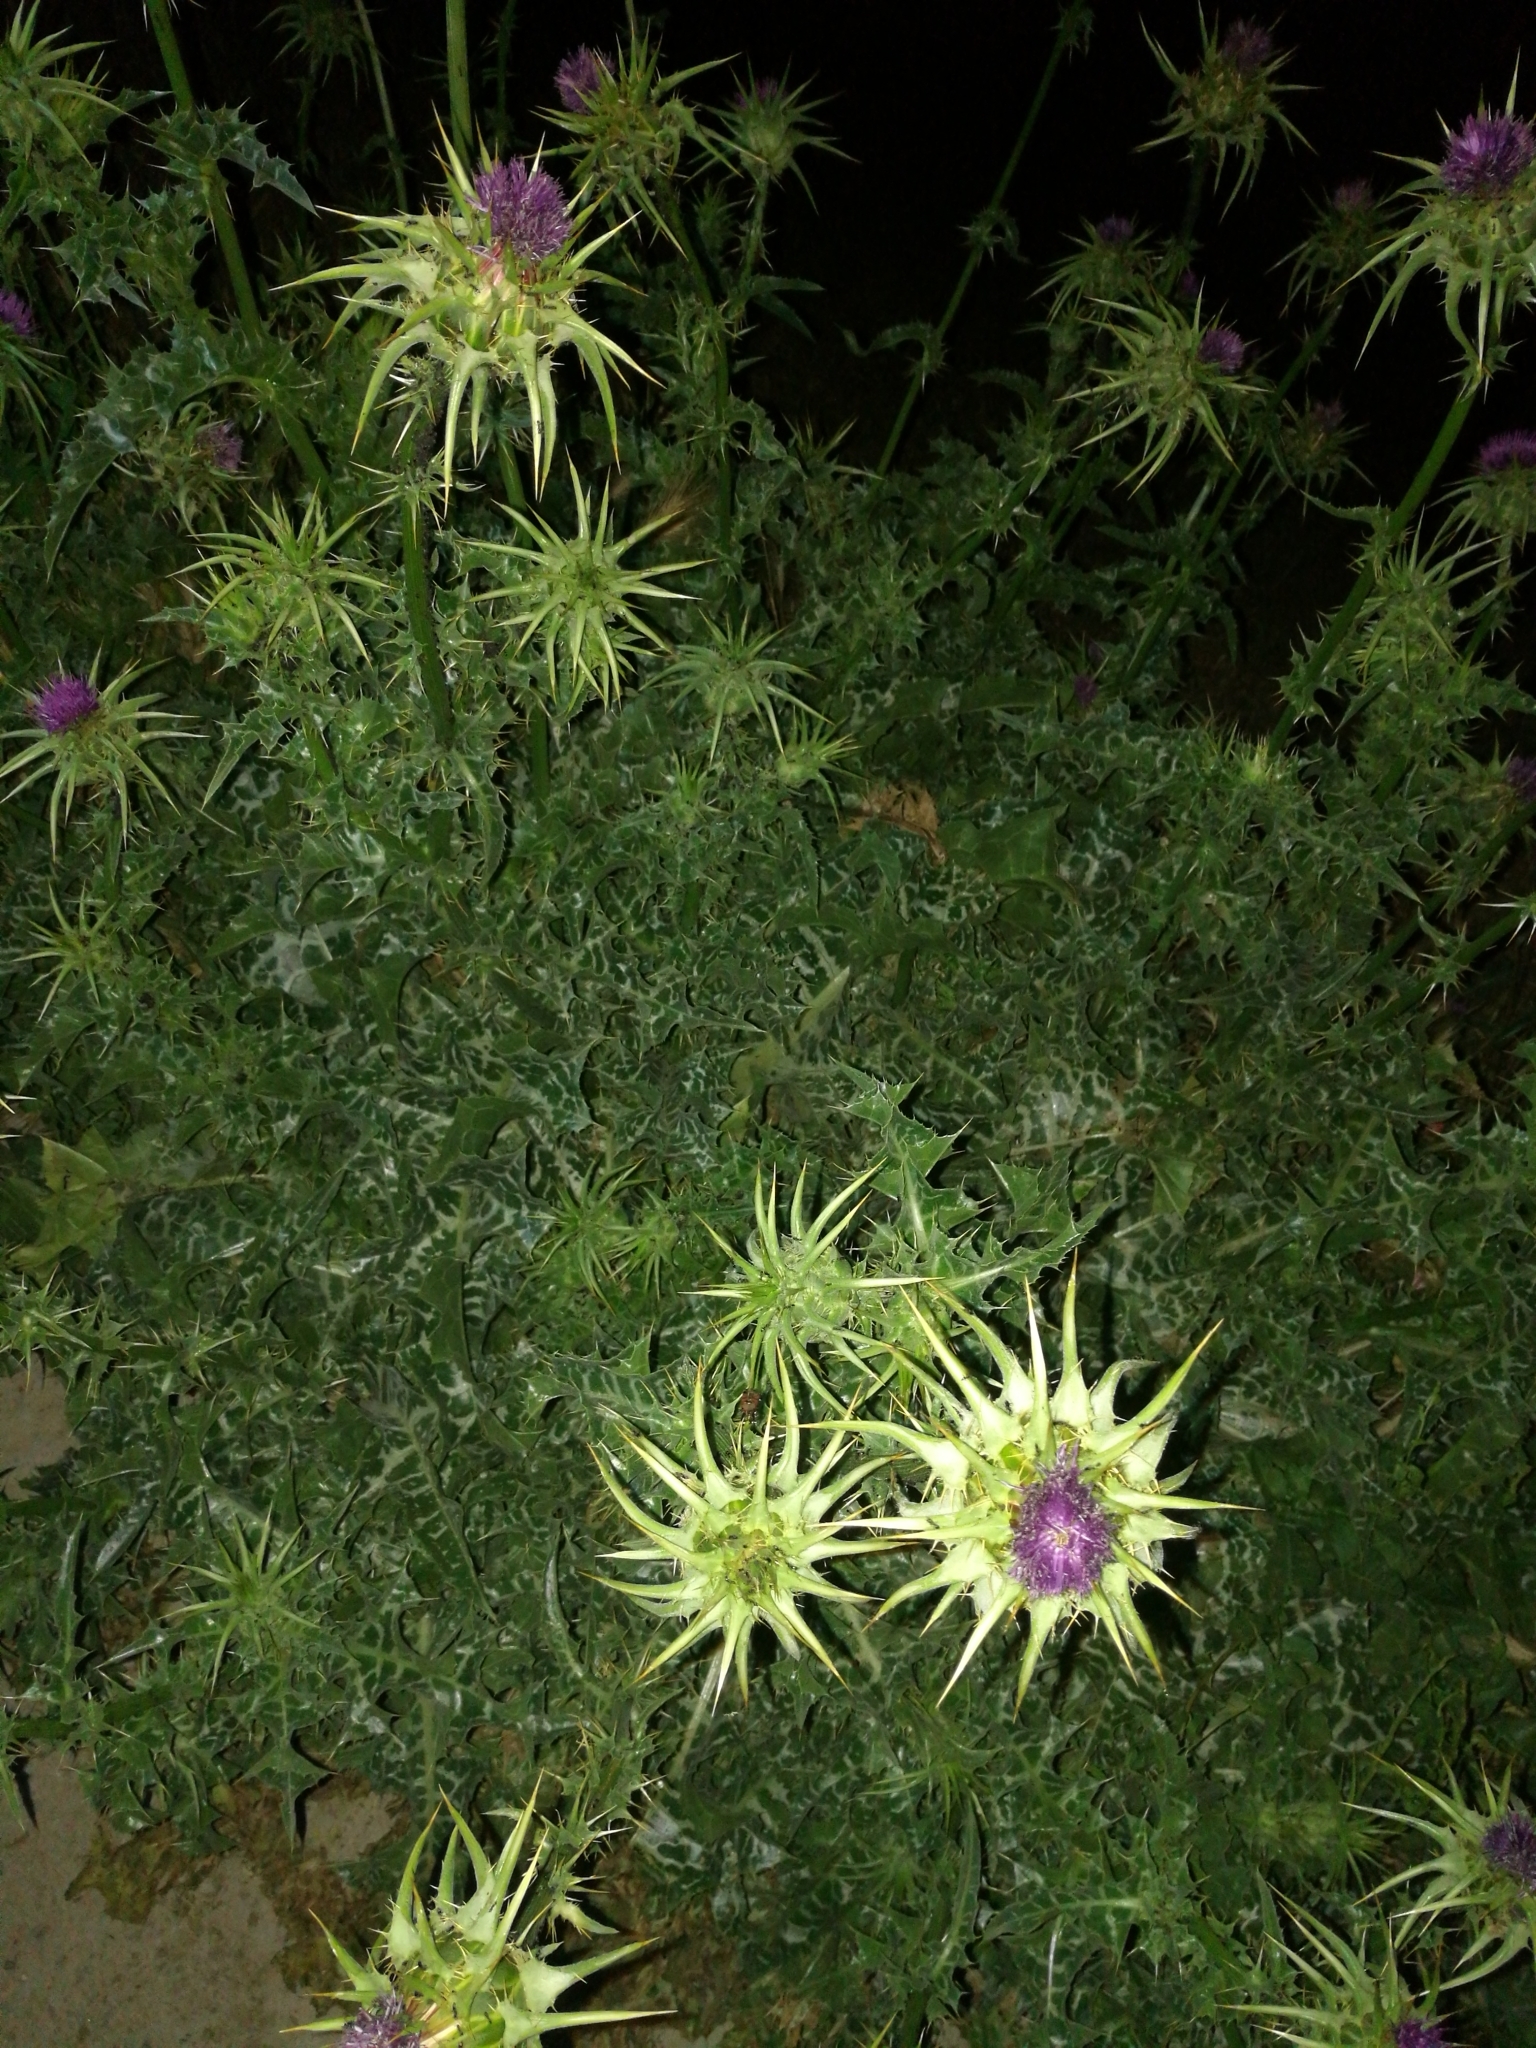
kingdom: Plantae
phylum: Tracheophyta
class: Magnoliopsida
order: Asterales
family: Asteraceae
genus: Silybum
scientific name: Silybum marianum
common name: Milk thistle
